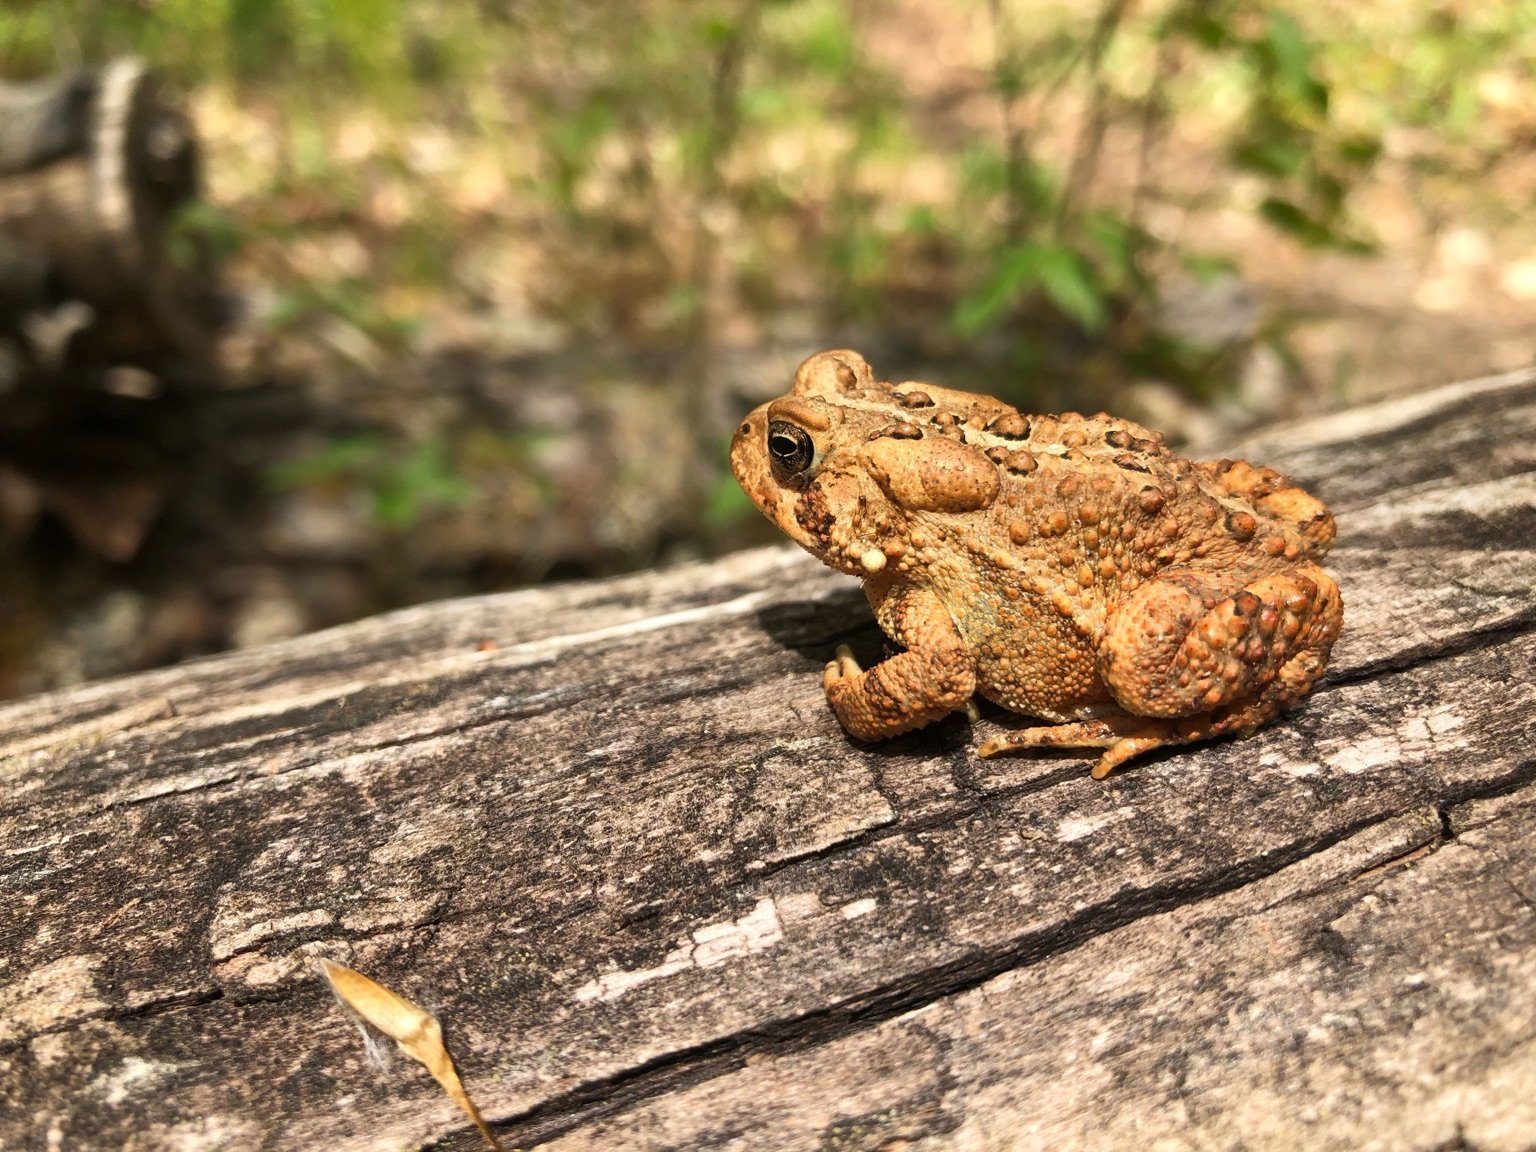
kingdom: Animalia
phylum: Chordata
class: Amphibia
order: Anura
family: Bufonidae
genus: Anaxyrus
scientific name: Anaxyrus americanus
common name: American toad
